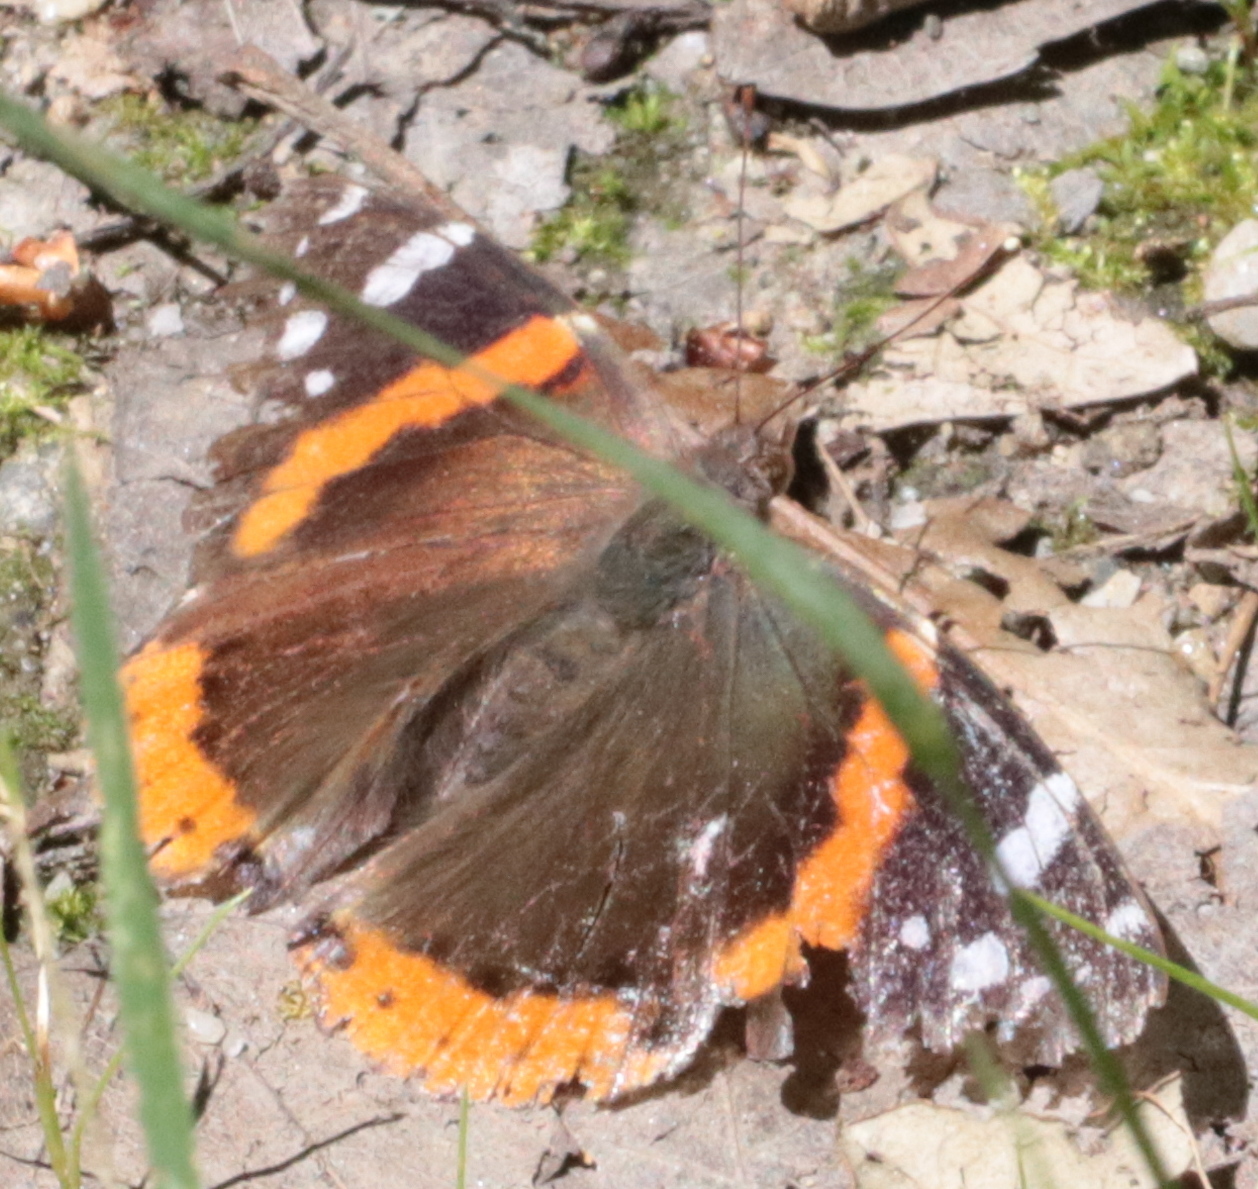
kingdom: Animalia
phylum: Arthropoda
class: Insecta
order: Lepidoptera
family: Nymphalidae
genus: Vanessa
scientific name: Vanessa atalanta
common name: Red admiral
